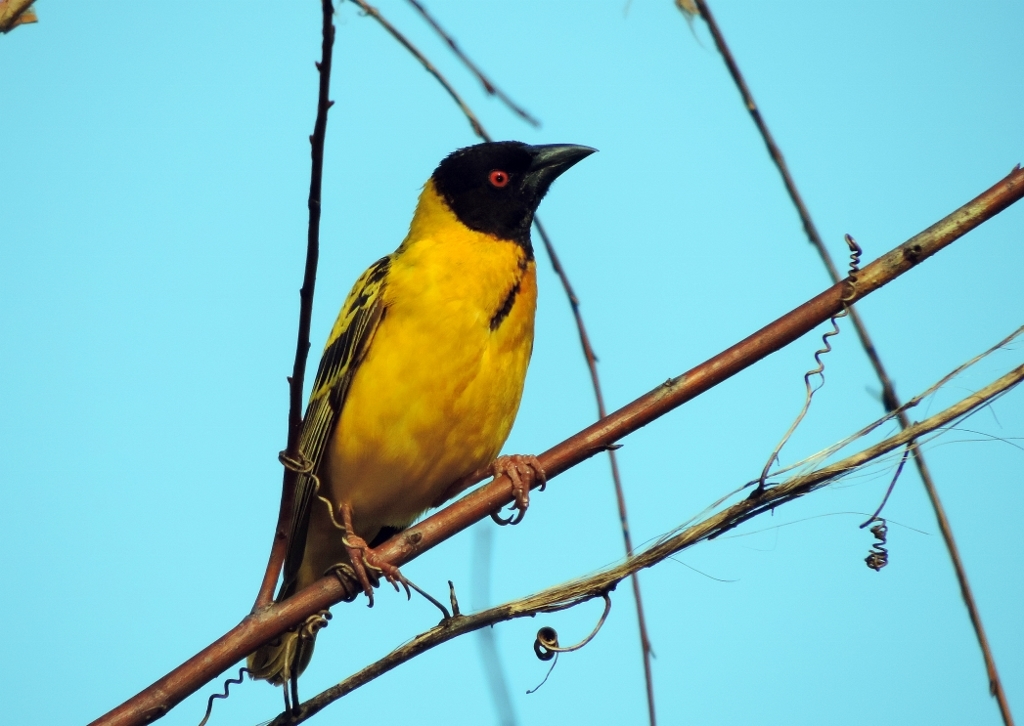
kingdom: Animalia
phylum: Chordata
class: Aves
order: Passeriformes
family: Ploceidae
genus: Ploceus
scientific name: Ploceus cucullatus
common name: Village weaver
